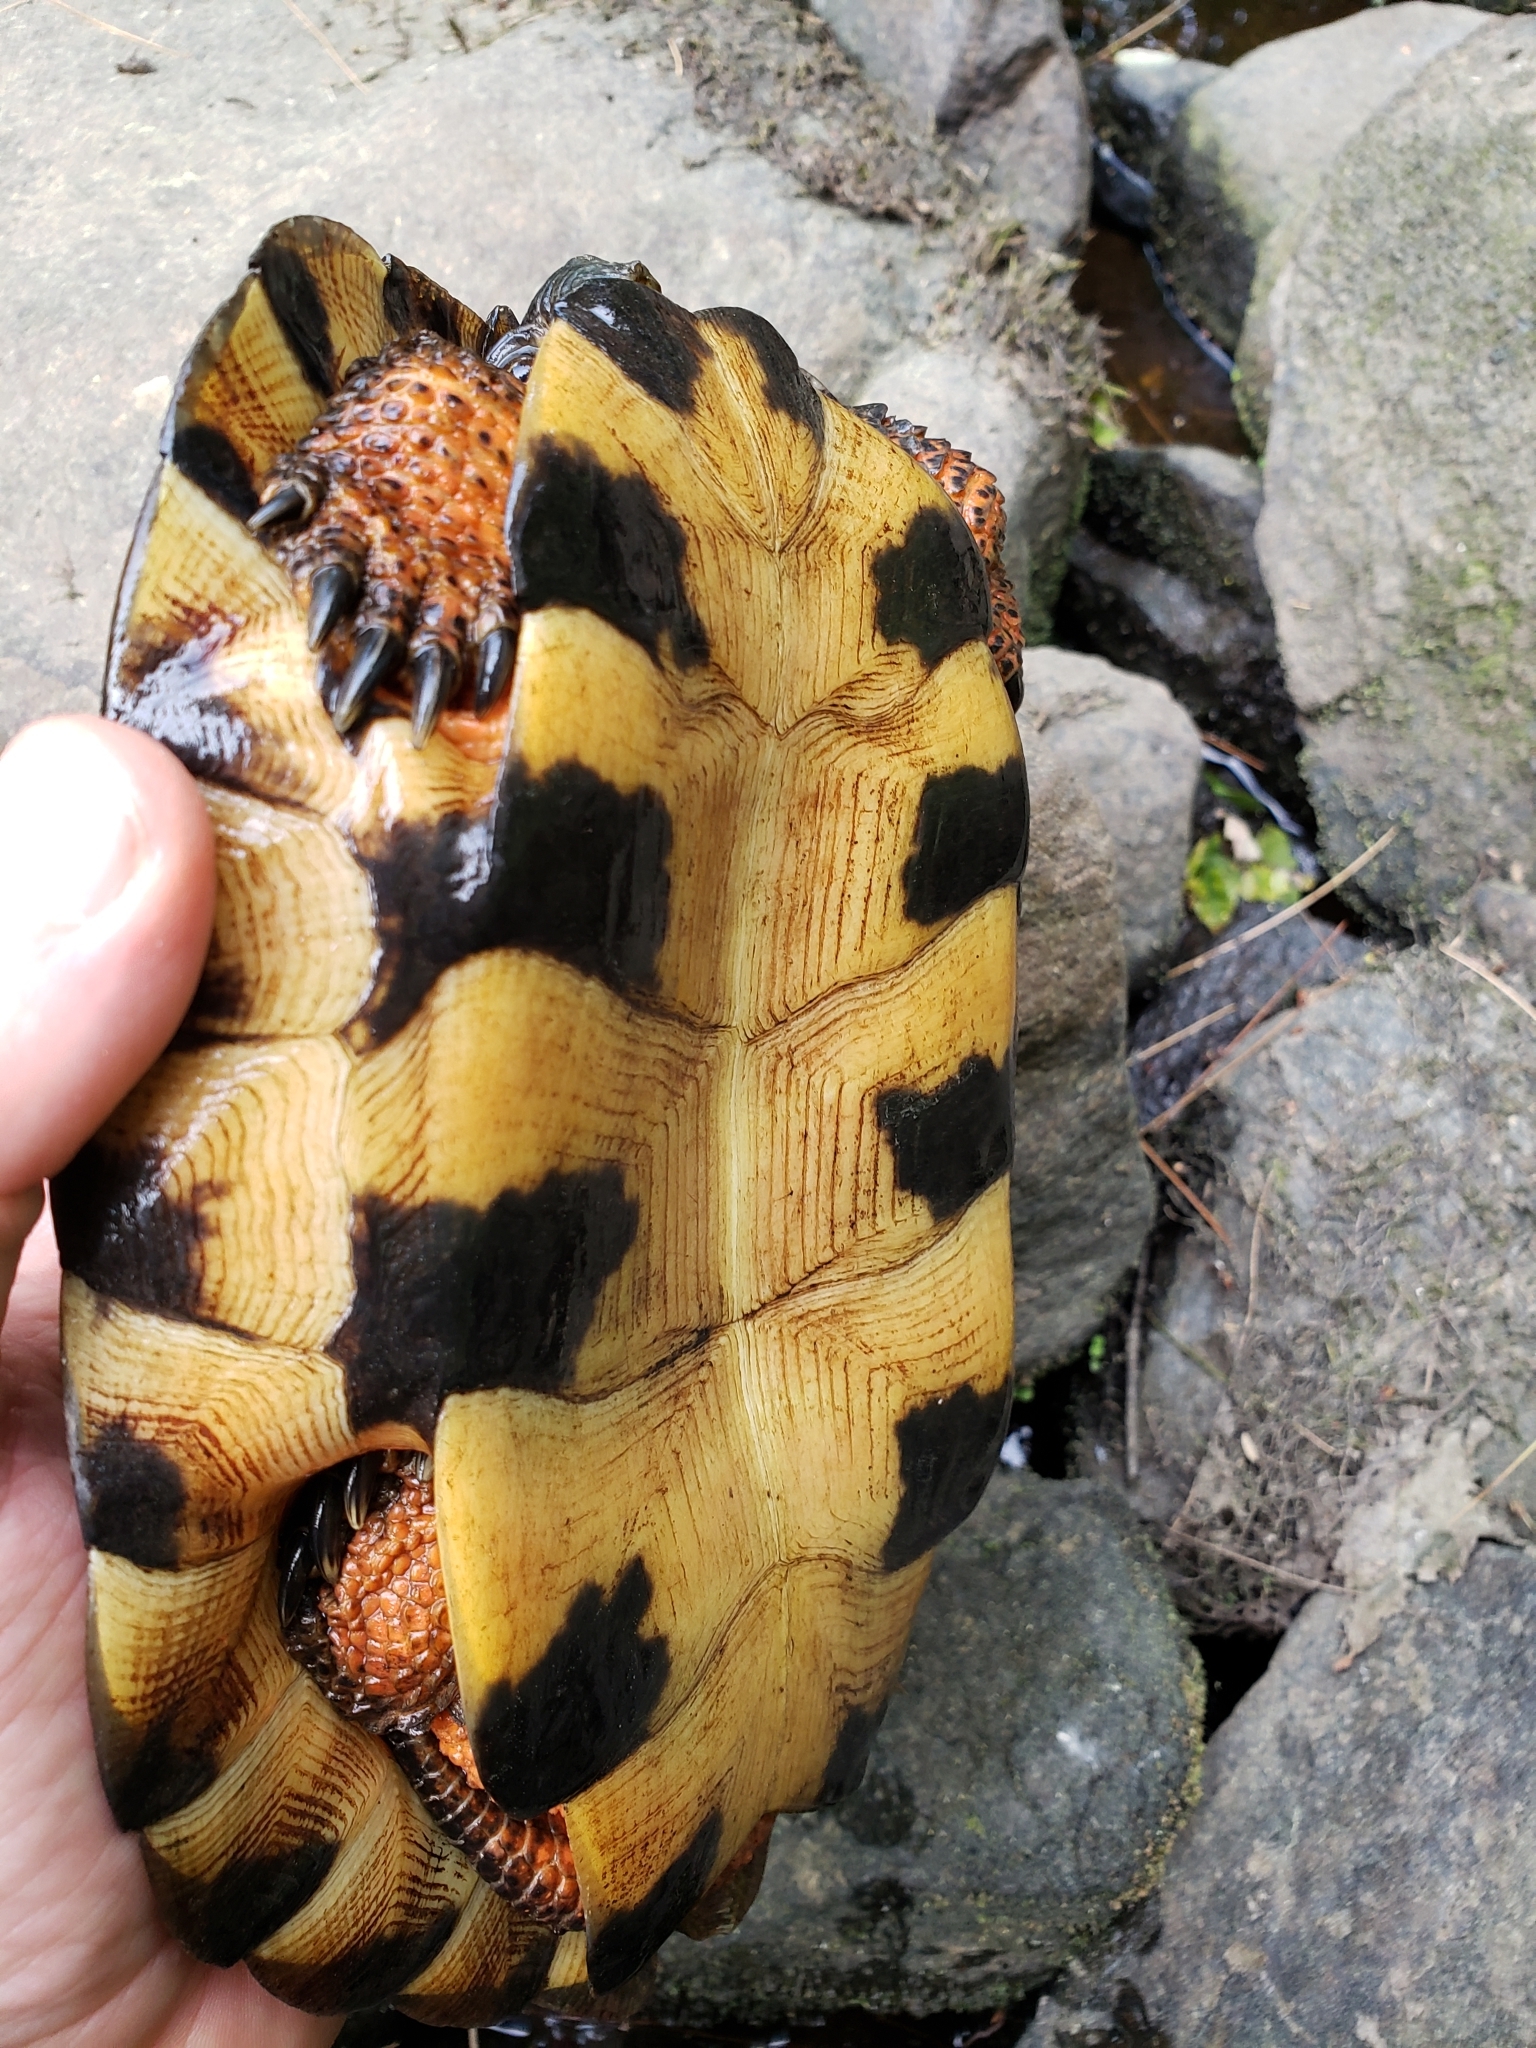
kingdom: Animalia
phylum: Chordata
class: Testudines
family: Emydidae
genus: Glyptemys
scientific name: Glyptemys insculpta
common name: Wood turtle
